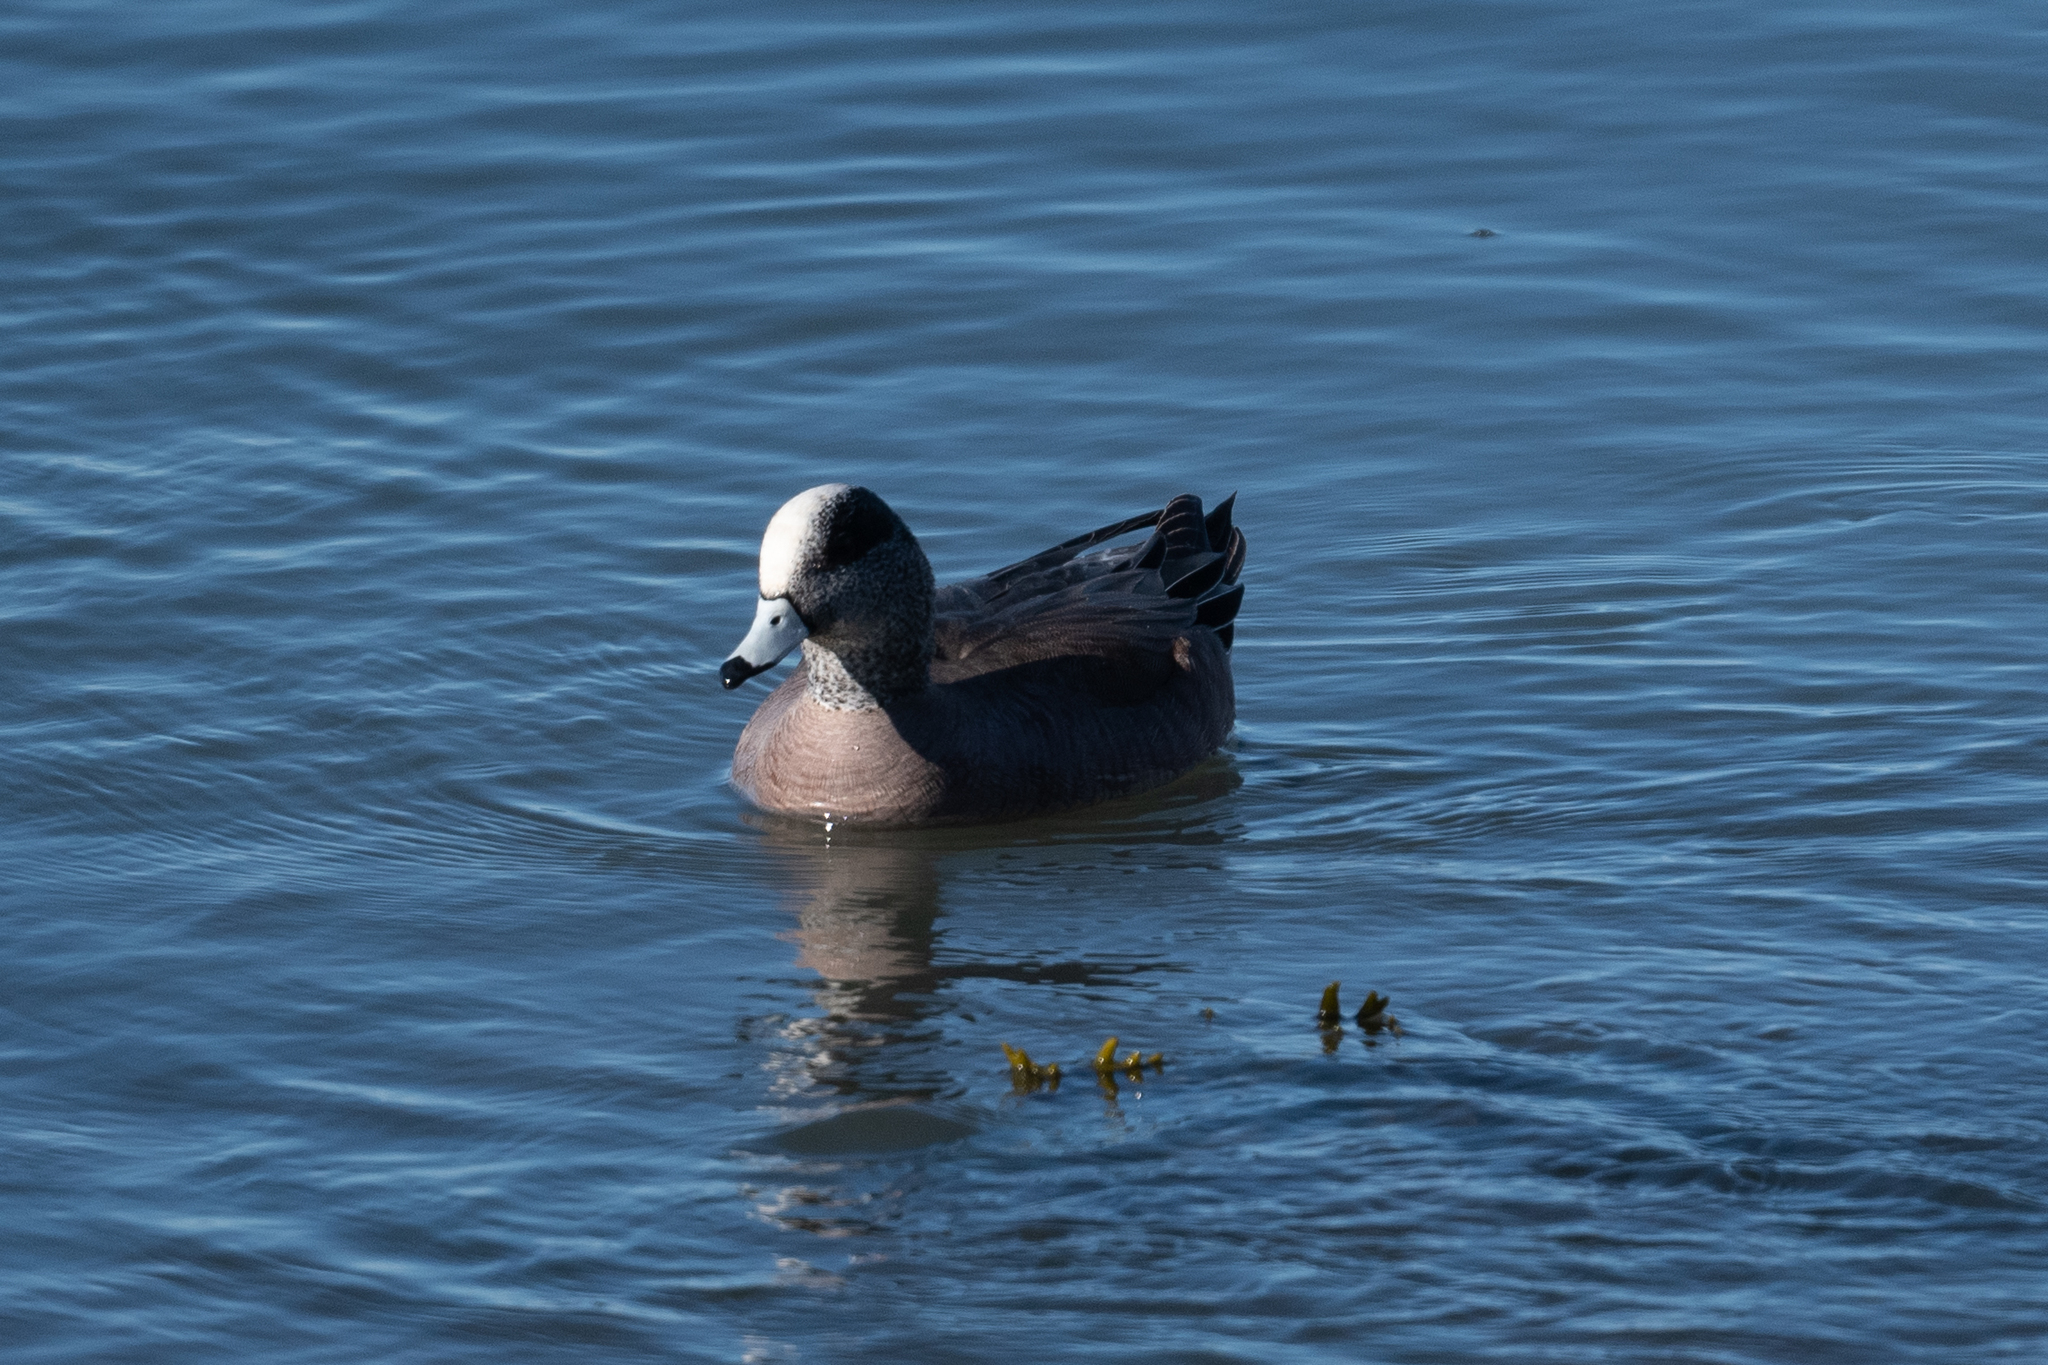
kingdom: Animalia
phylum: Chordata
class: Aves
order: Anseriformes
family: Anatidae
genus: Mareca
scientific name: Mareca americana
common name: American wigeon
